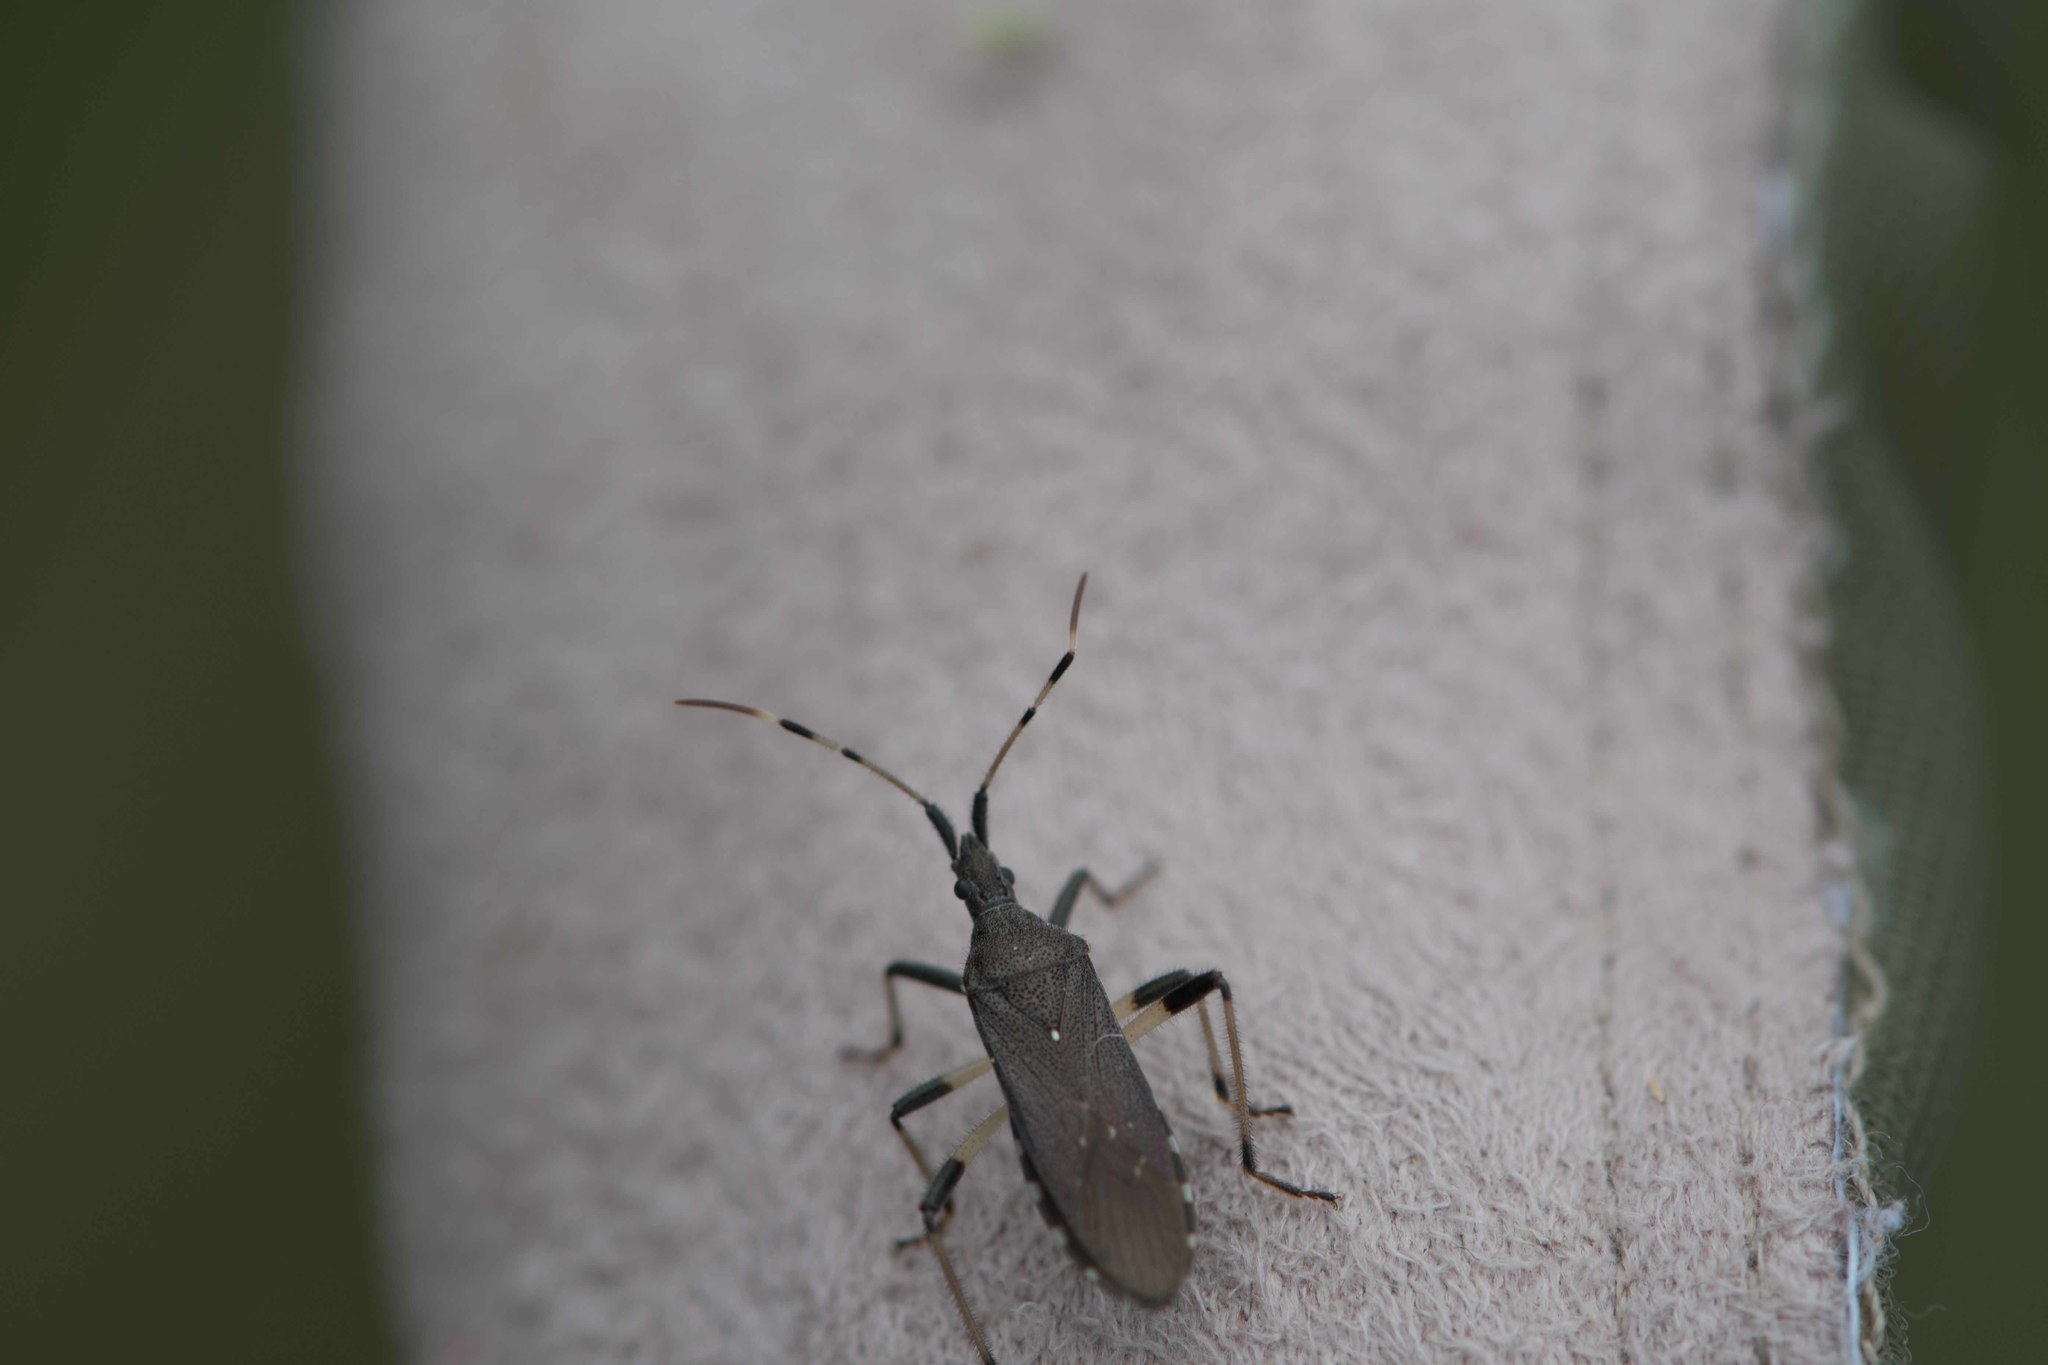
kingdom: Animalia
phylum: Arthropoda
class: Insecta
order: Hemiptera
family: Stenocephalidae
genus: Dicranocephalus
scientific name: Dicranocephalus albipes
